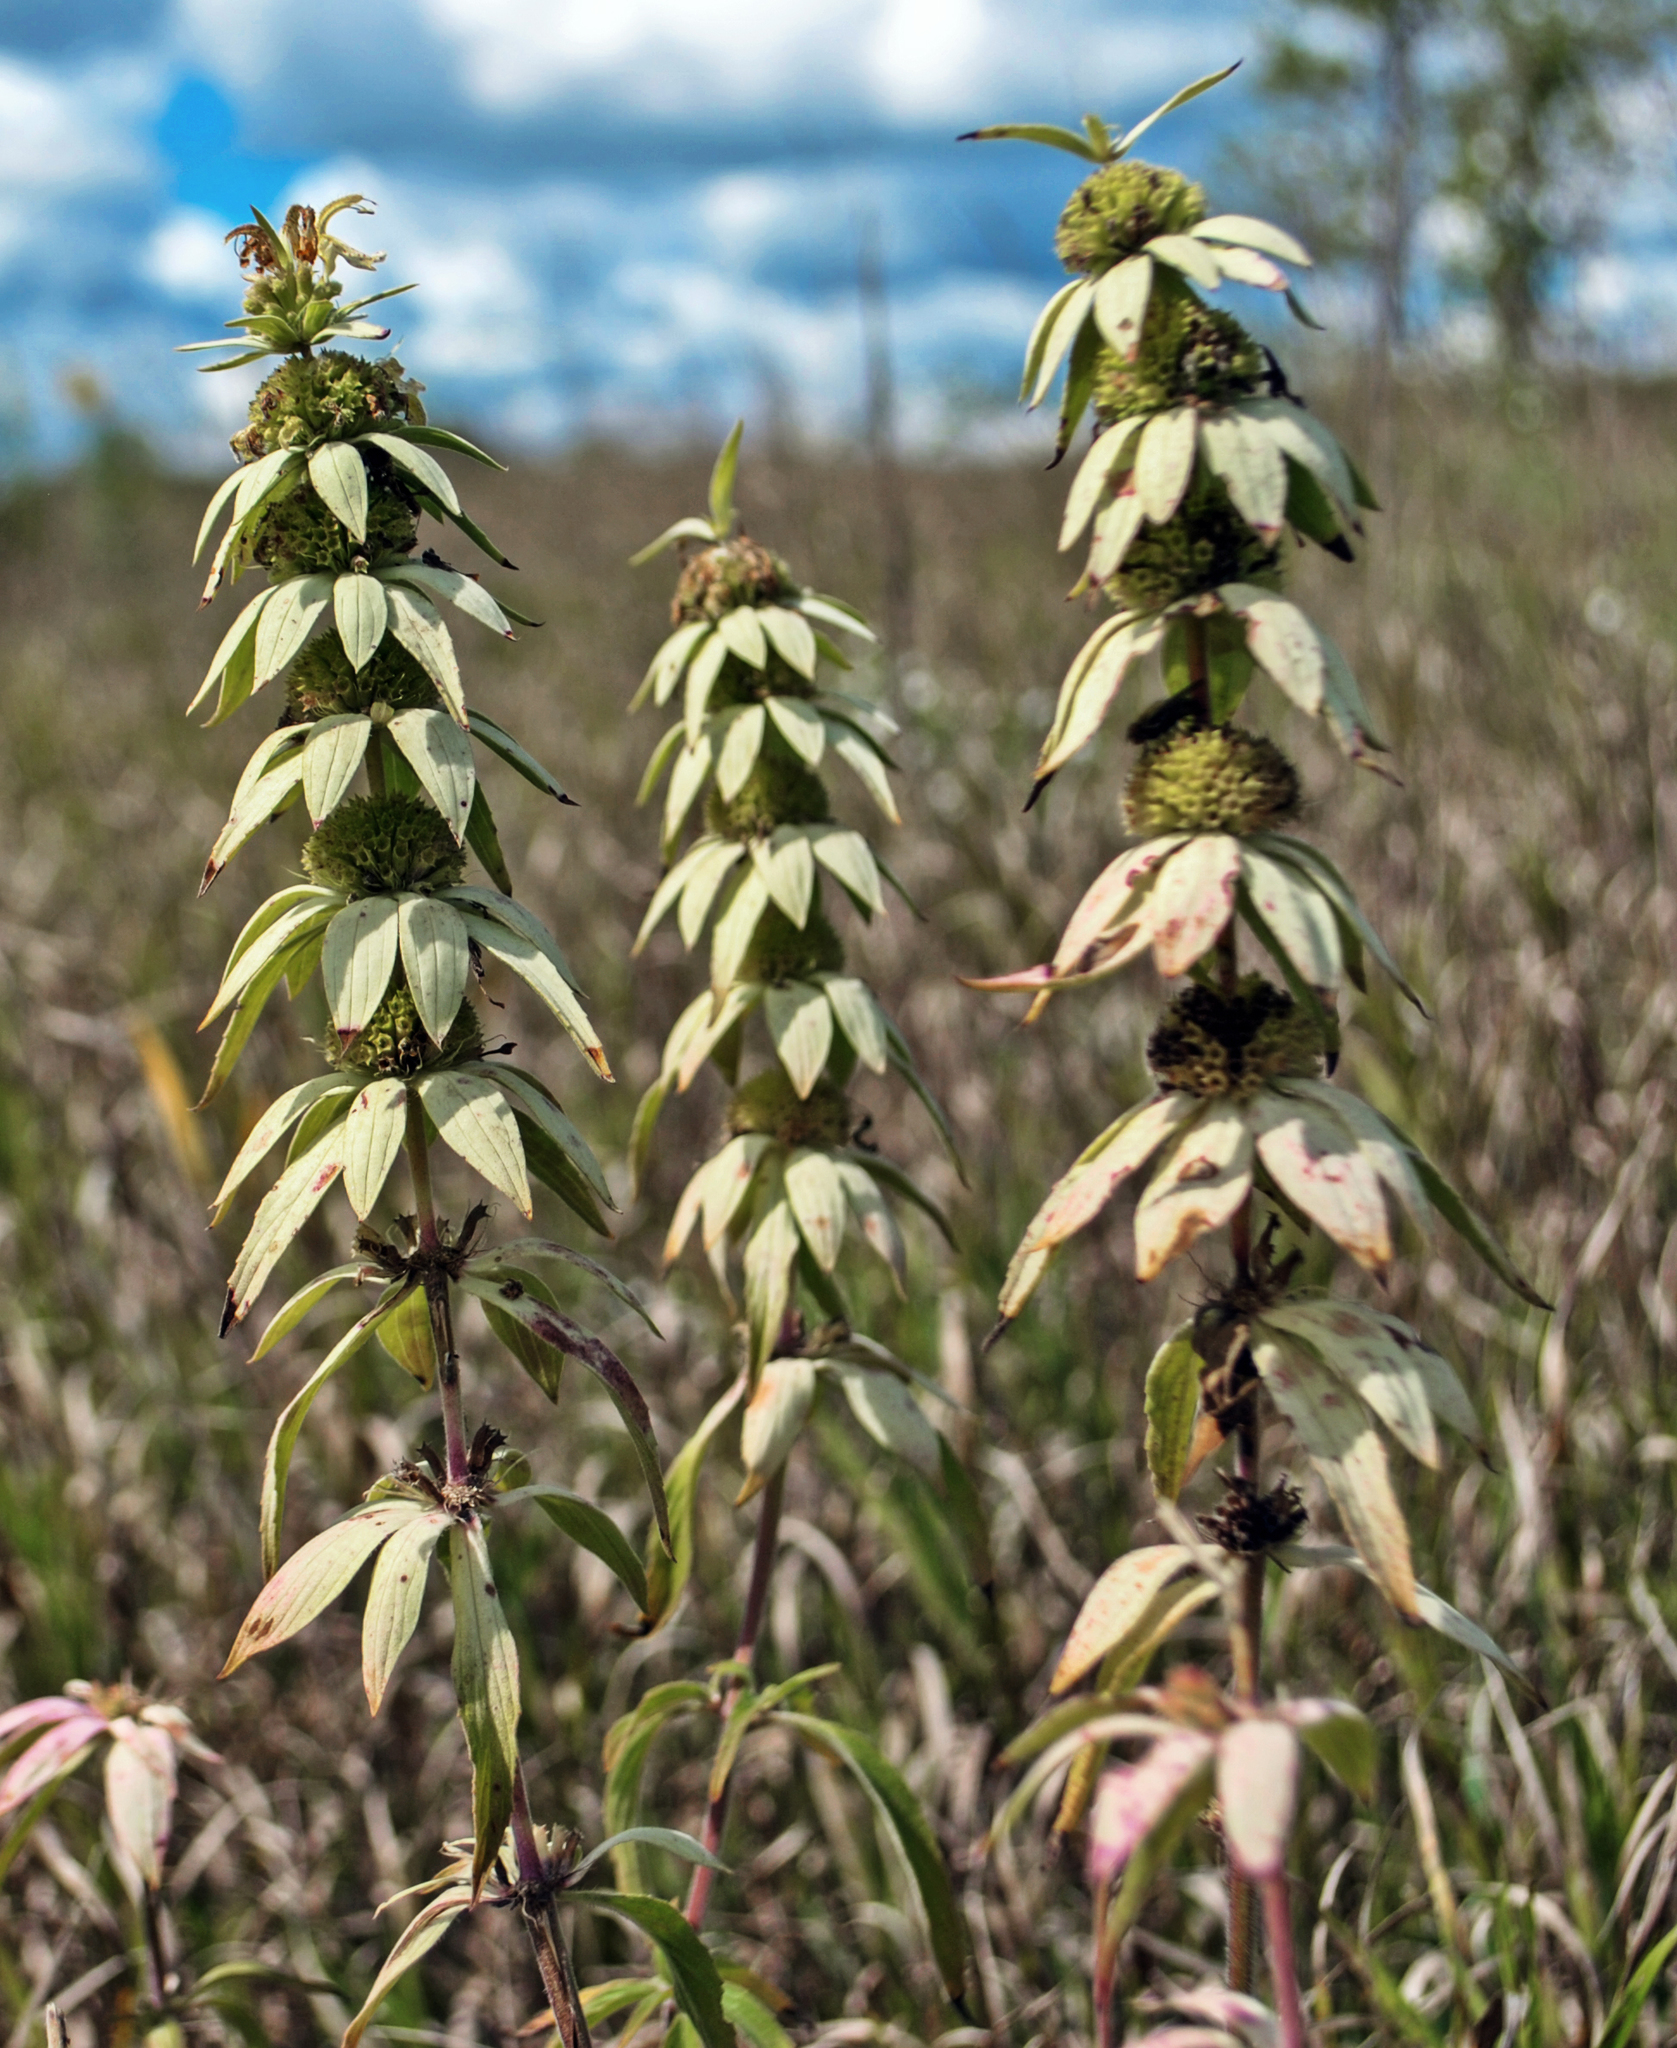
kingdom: Plantae
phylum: Tracheophyta
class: Magnoliopsida
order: Lamiales
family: Lamiaceae
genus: Monarda
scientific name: Monarda punctata
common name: Dotted monarda
